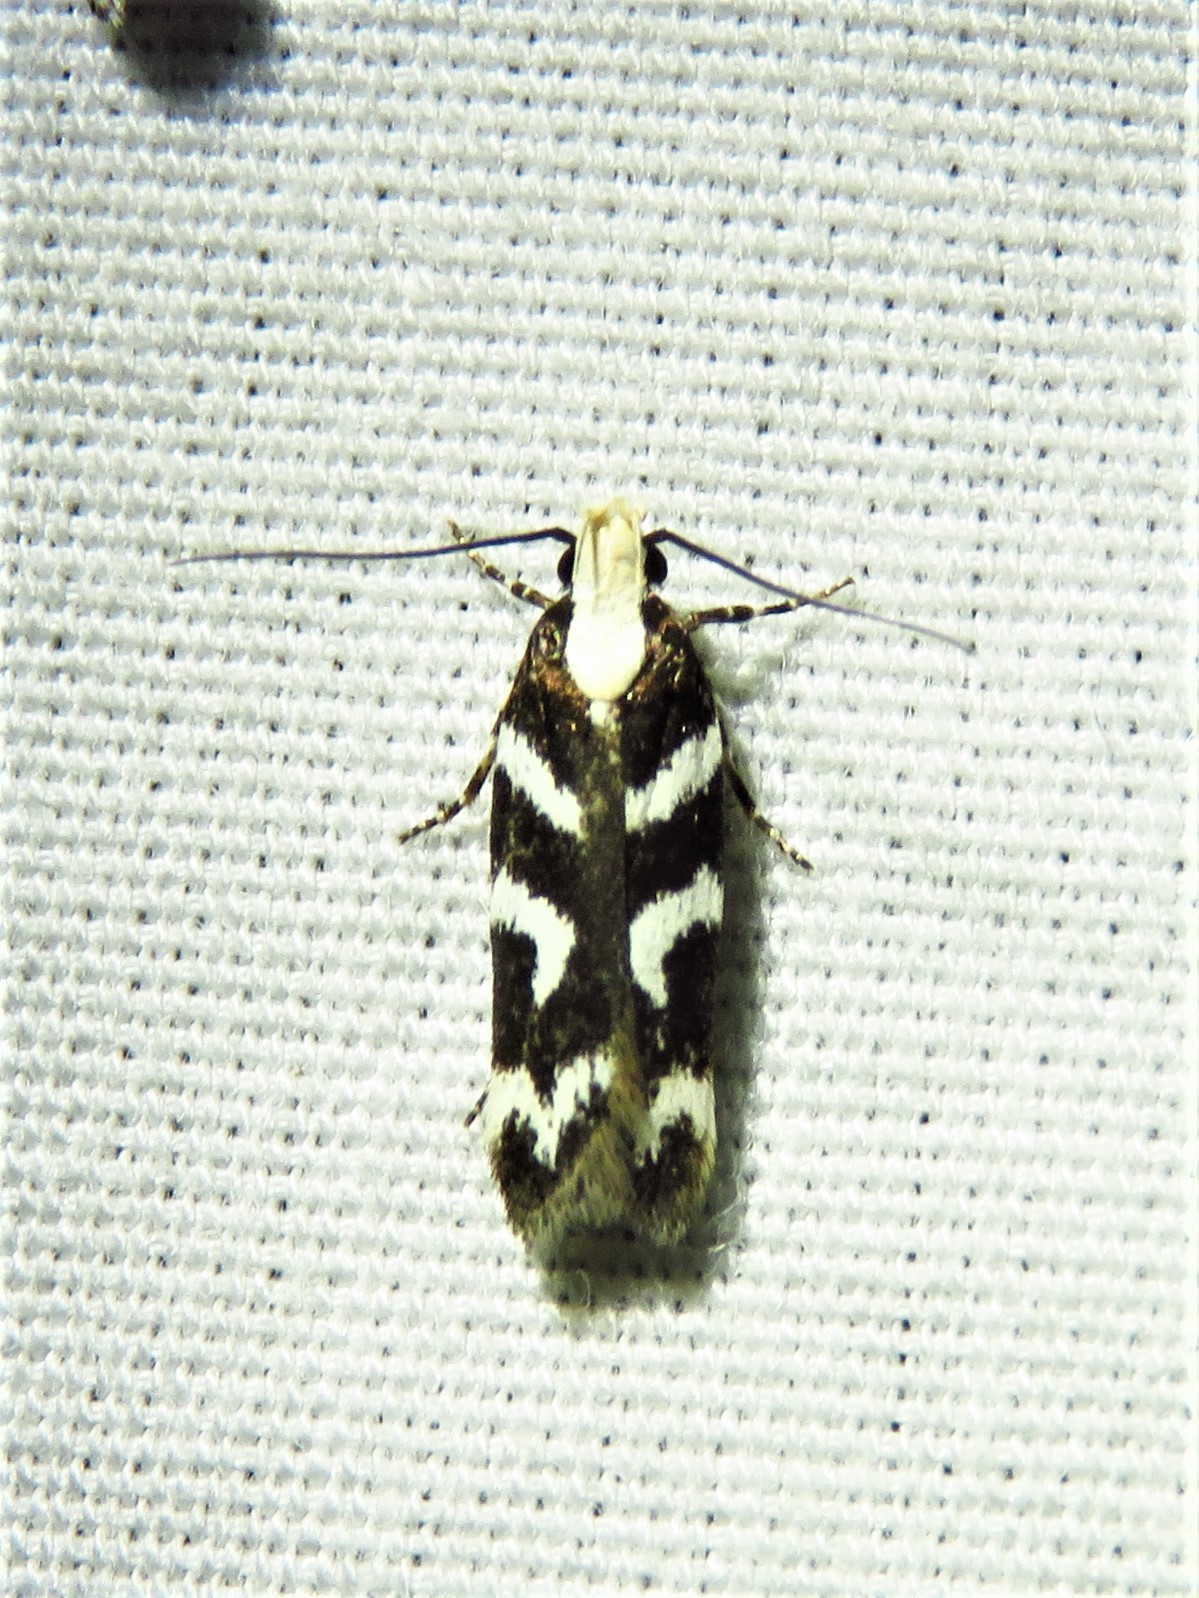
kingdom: Animalia
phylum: Arthropoda
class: Insecta
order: Lepidoptera
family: Gelechiidae
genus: Filatima
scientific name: Filatima albilorella
